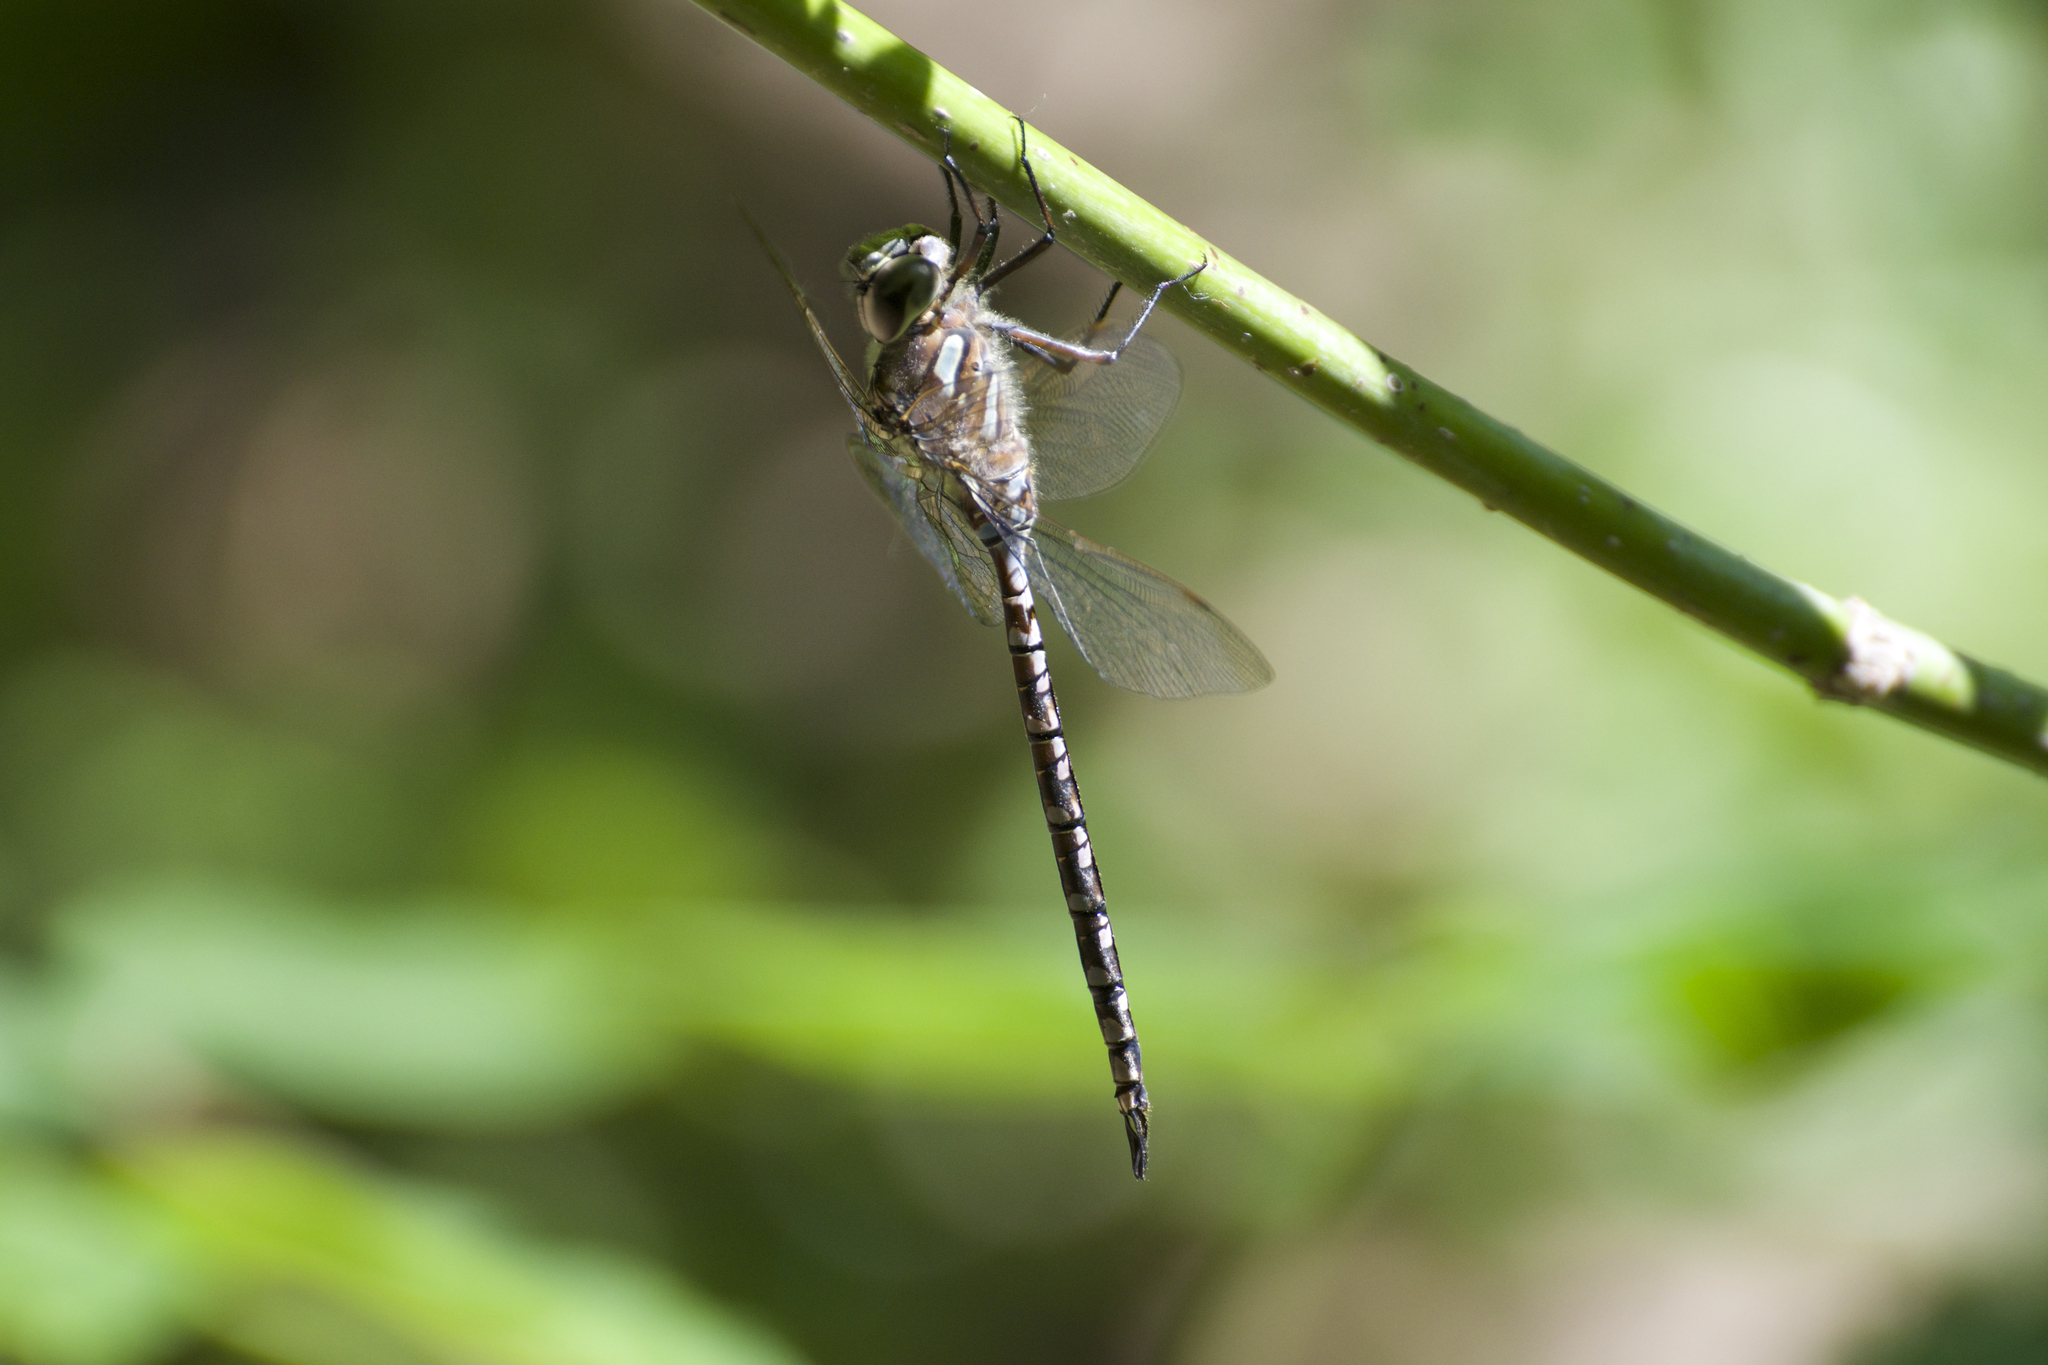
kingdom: Animalia
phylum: Arthropoda
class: Insecta
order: Odonata
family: Aeshnidae
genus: Aeshna
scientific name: Aeshna canadensis
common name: Canada darner
